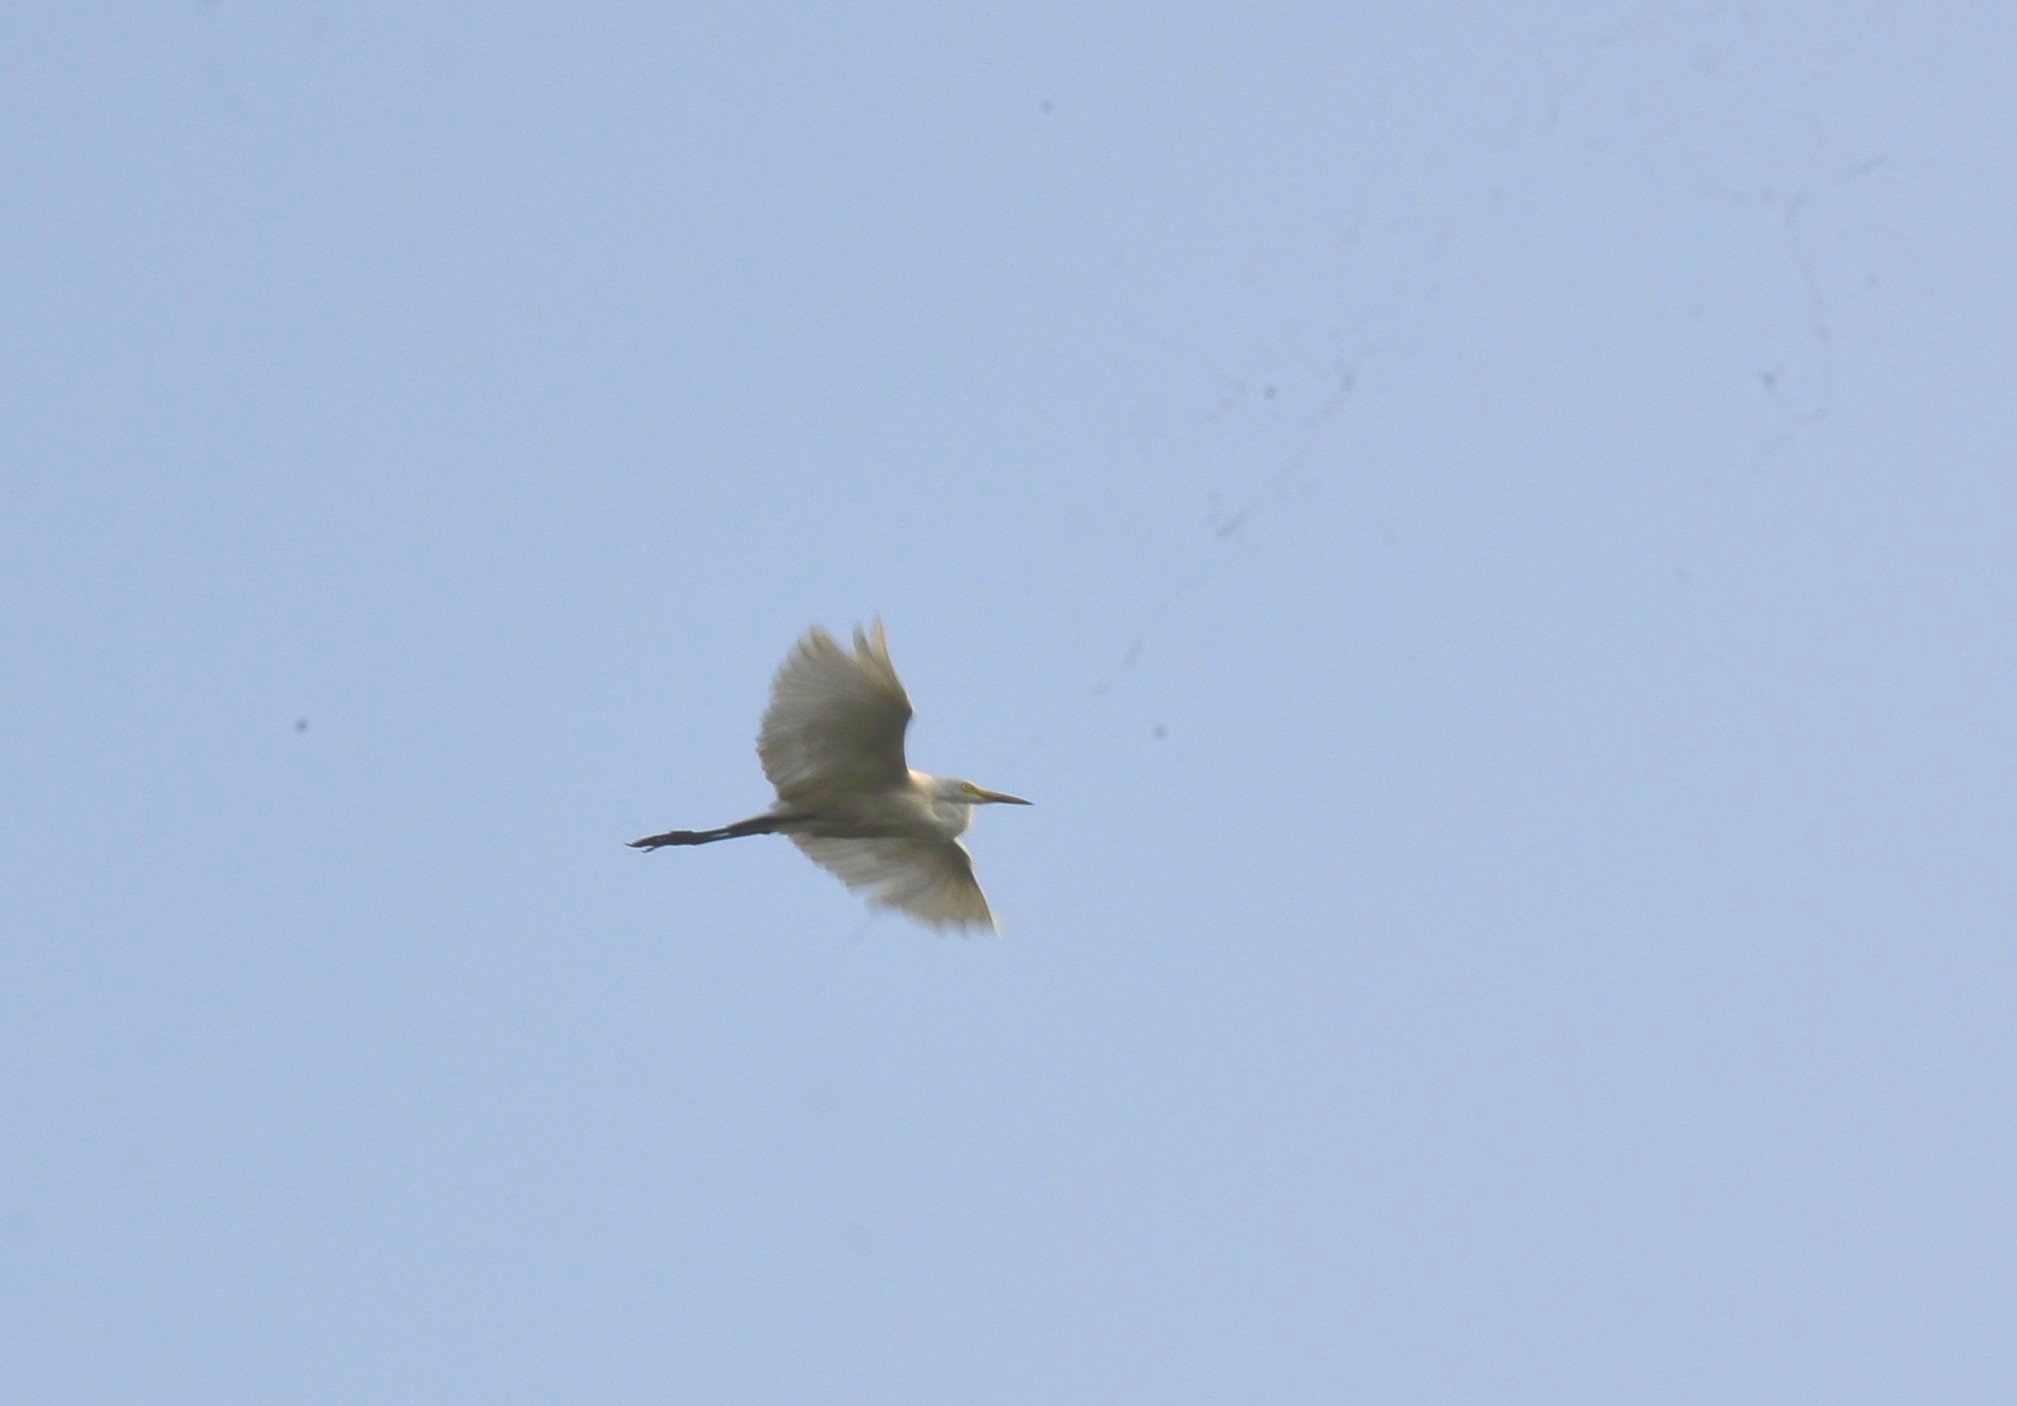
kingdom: Animalia
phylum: Chordata
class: Aves
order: Pelecaniformes
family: Ardeidae
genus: Egretta
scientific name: Egretta garzetta
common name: Little egret
